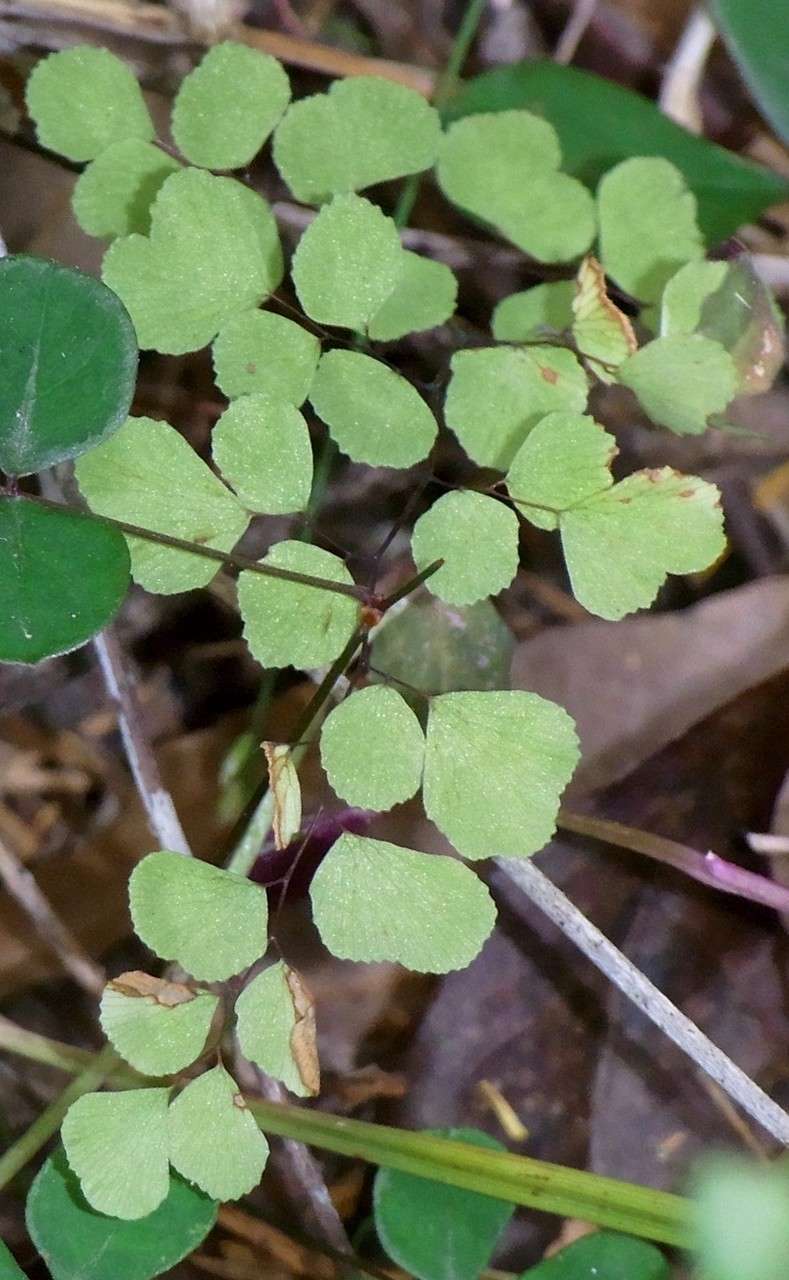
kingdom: Plantae
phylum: Tracheophyta
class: Polypodiopsida
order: Polypodiales
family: Pteridaceae
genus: Adiantum
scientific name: Adiantum aethiopicum
